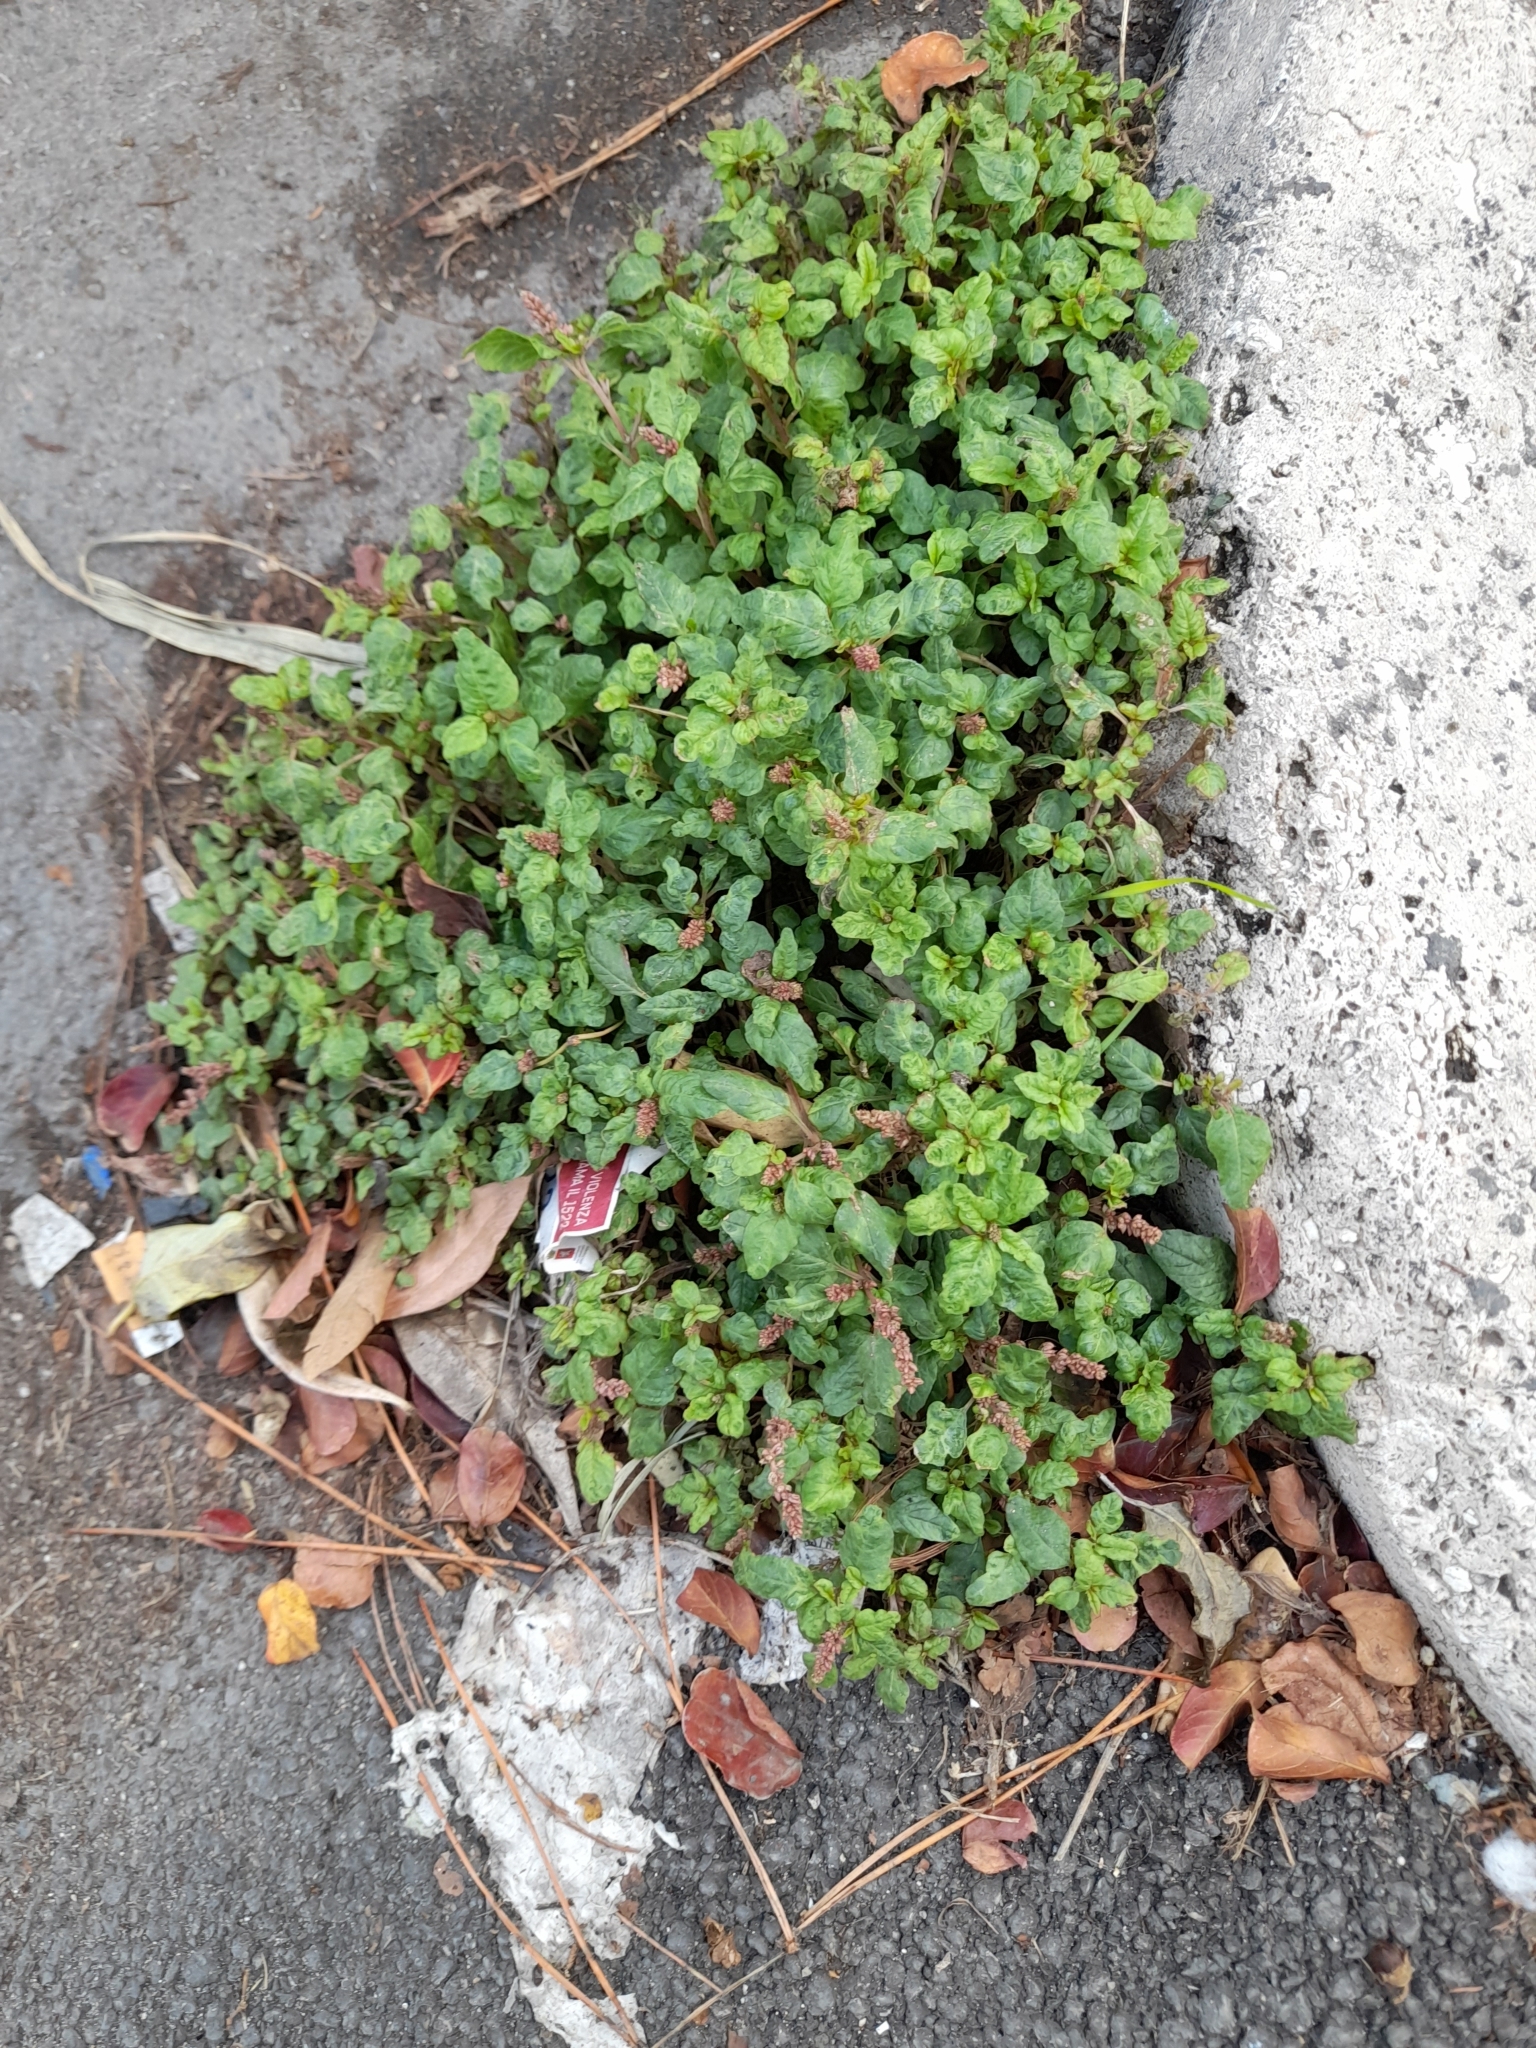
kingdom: Plantae
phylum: Tracheophyta
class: Magnoliopsida
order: Caryophyllales
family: Amaranthaceae
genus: Amaranthus
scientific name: Amaranthus deflexus
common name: Perennial pigweed
